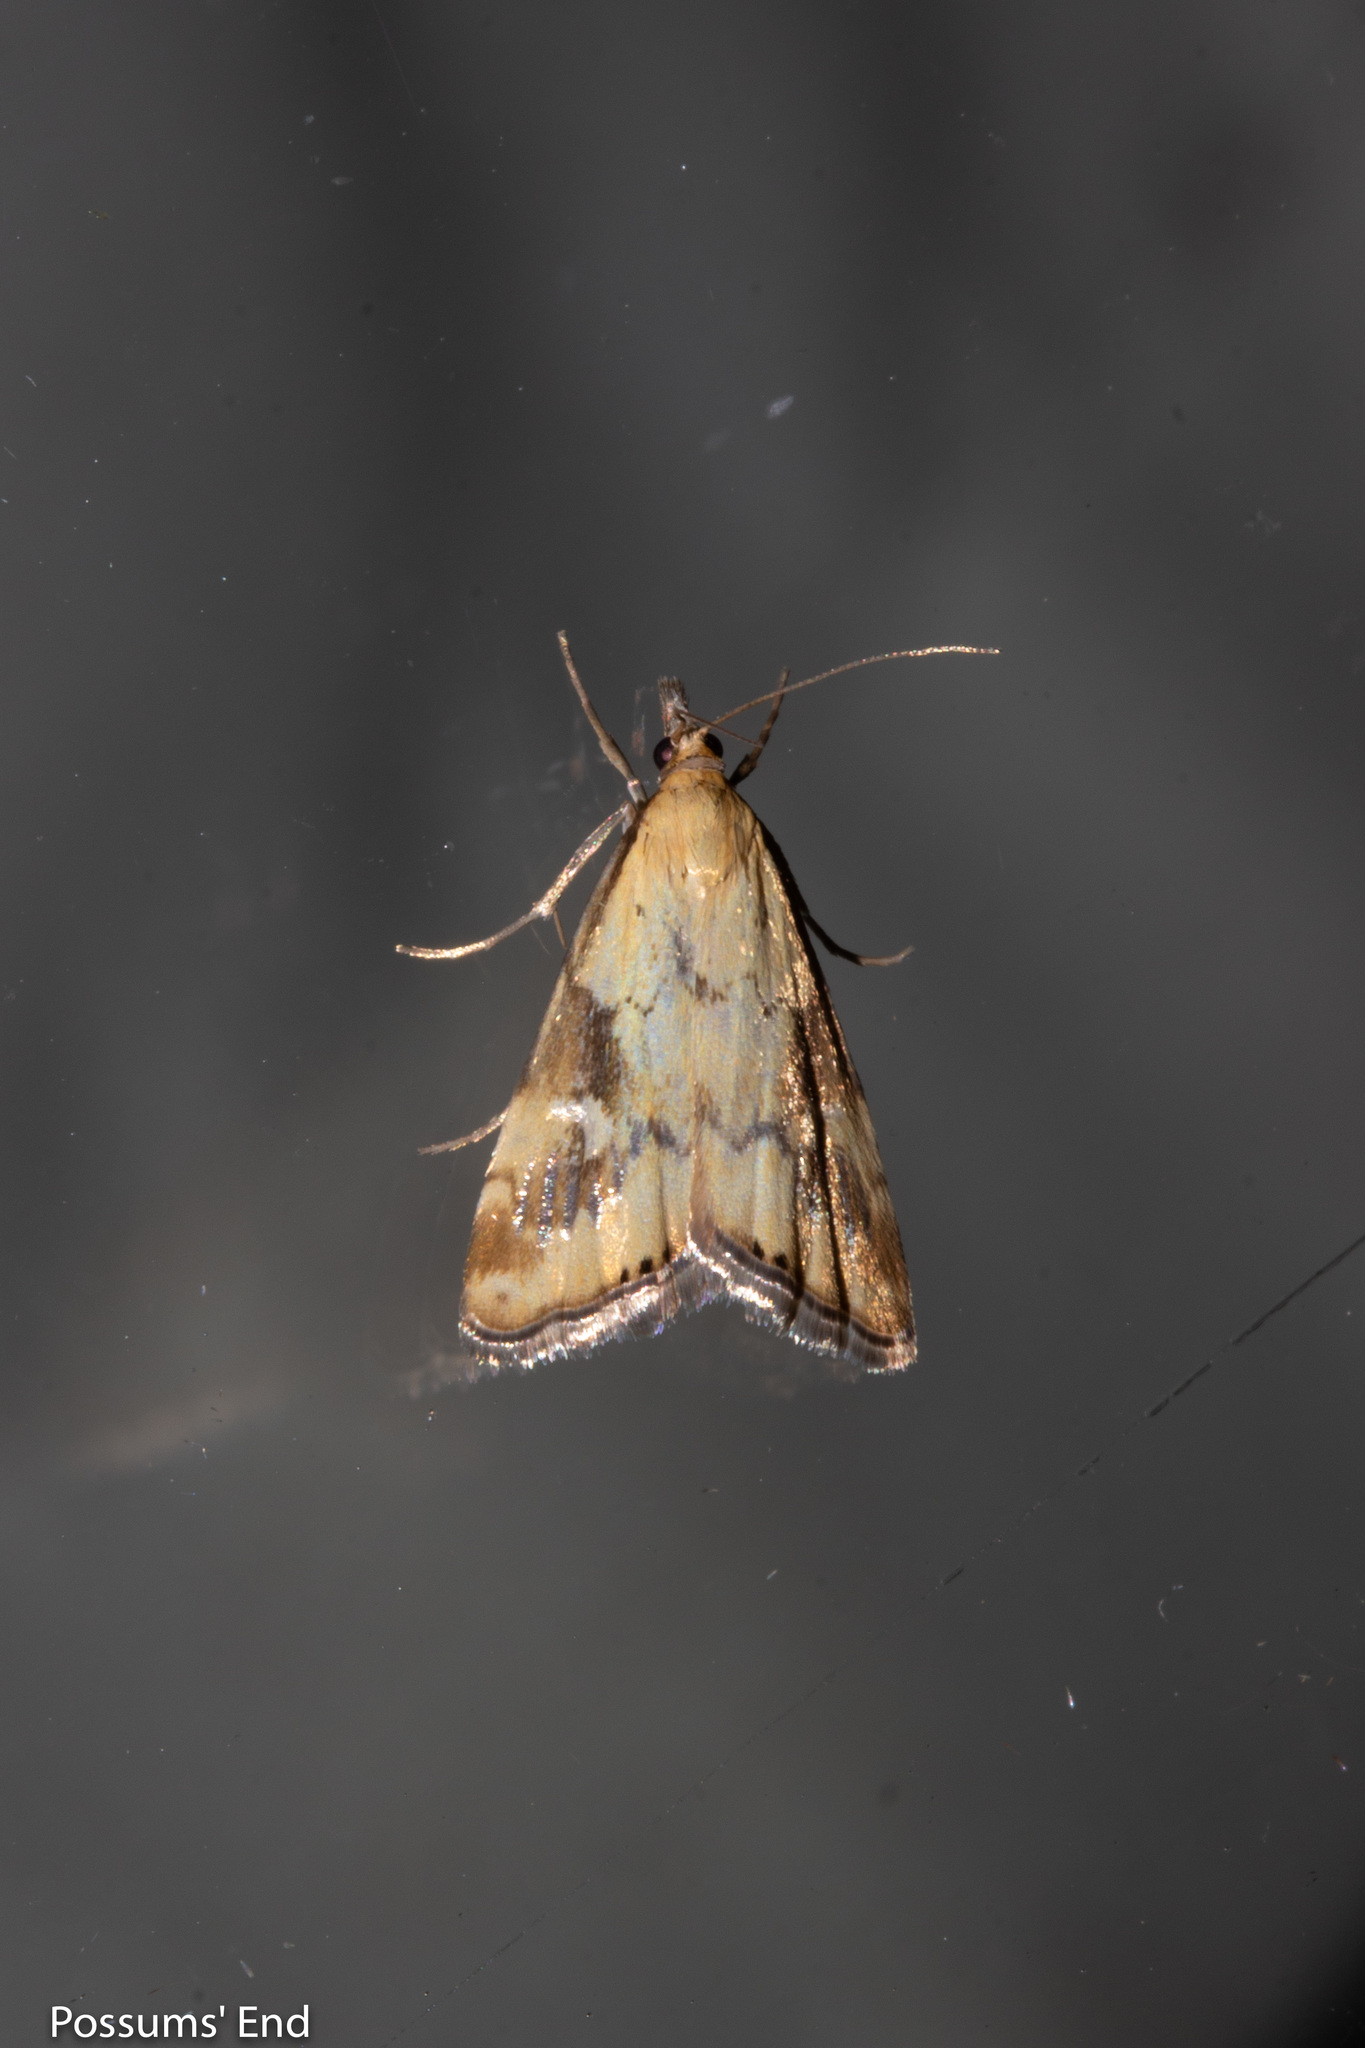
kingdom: Animalia
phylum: Arthropoda
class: Insecta
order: Lepidoptera
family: Crambidae
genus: Glaucocharis
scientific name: Glaucocharis lepidella
